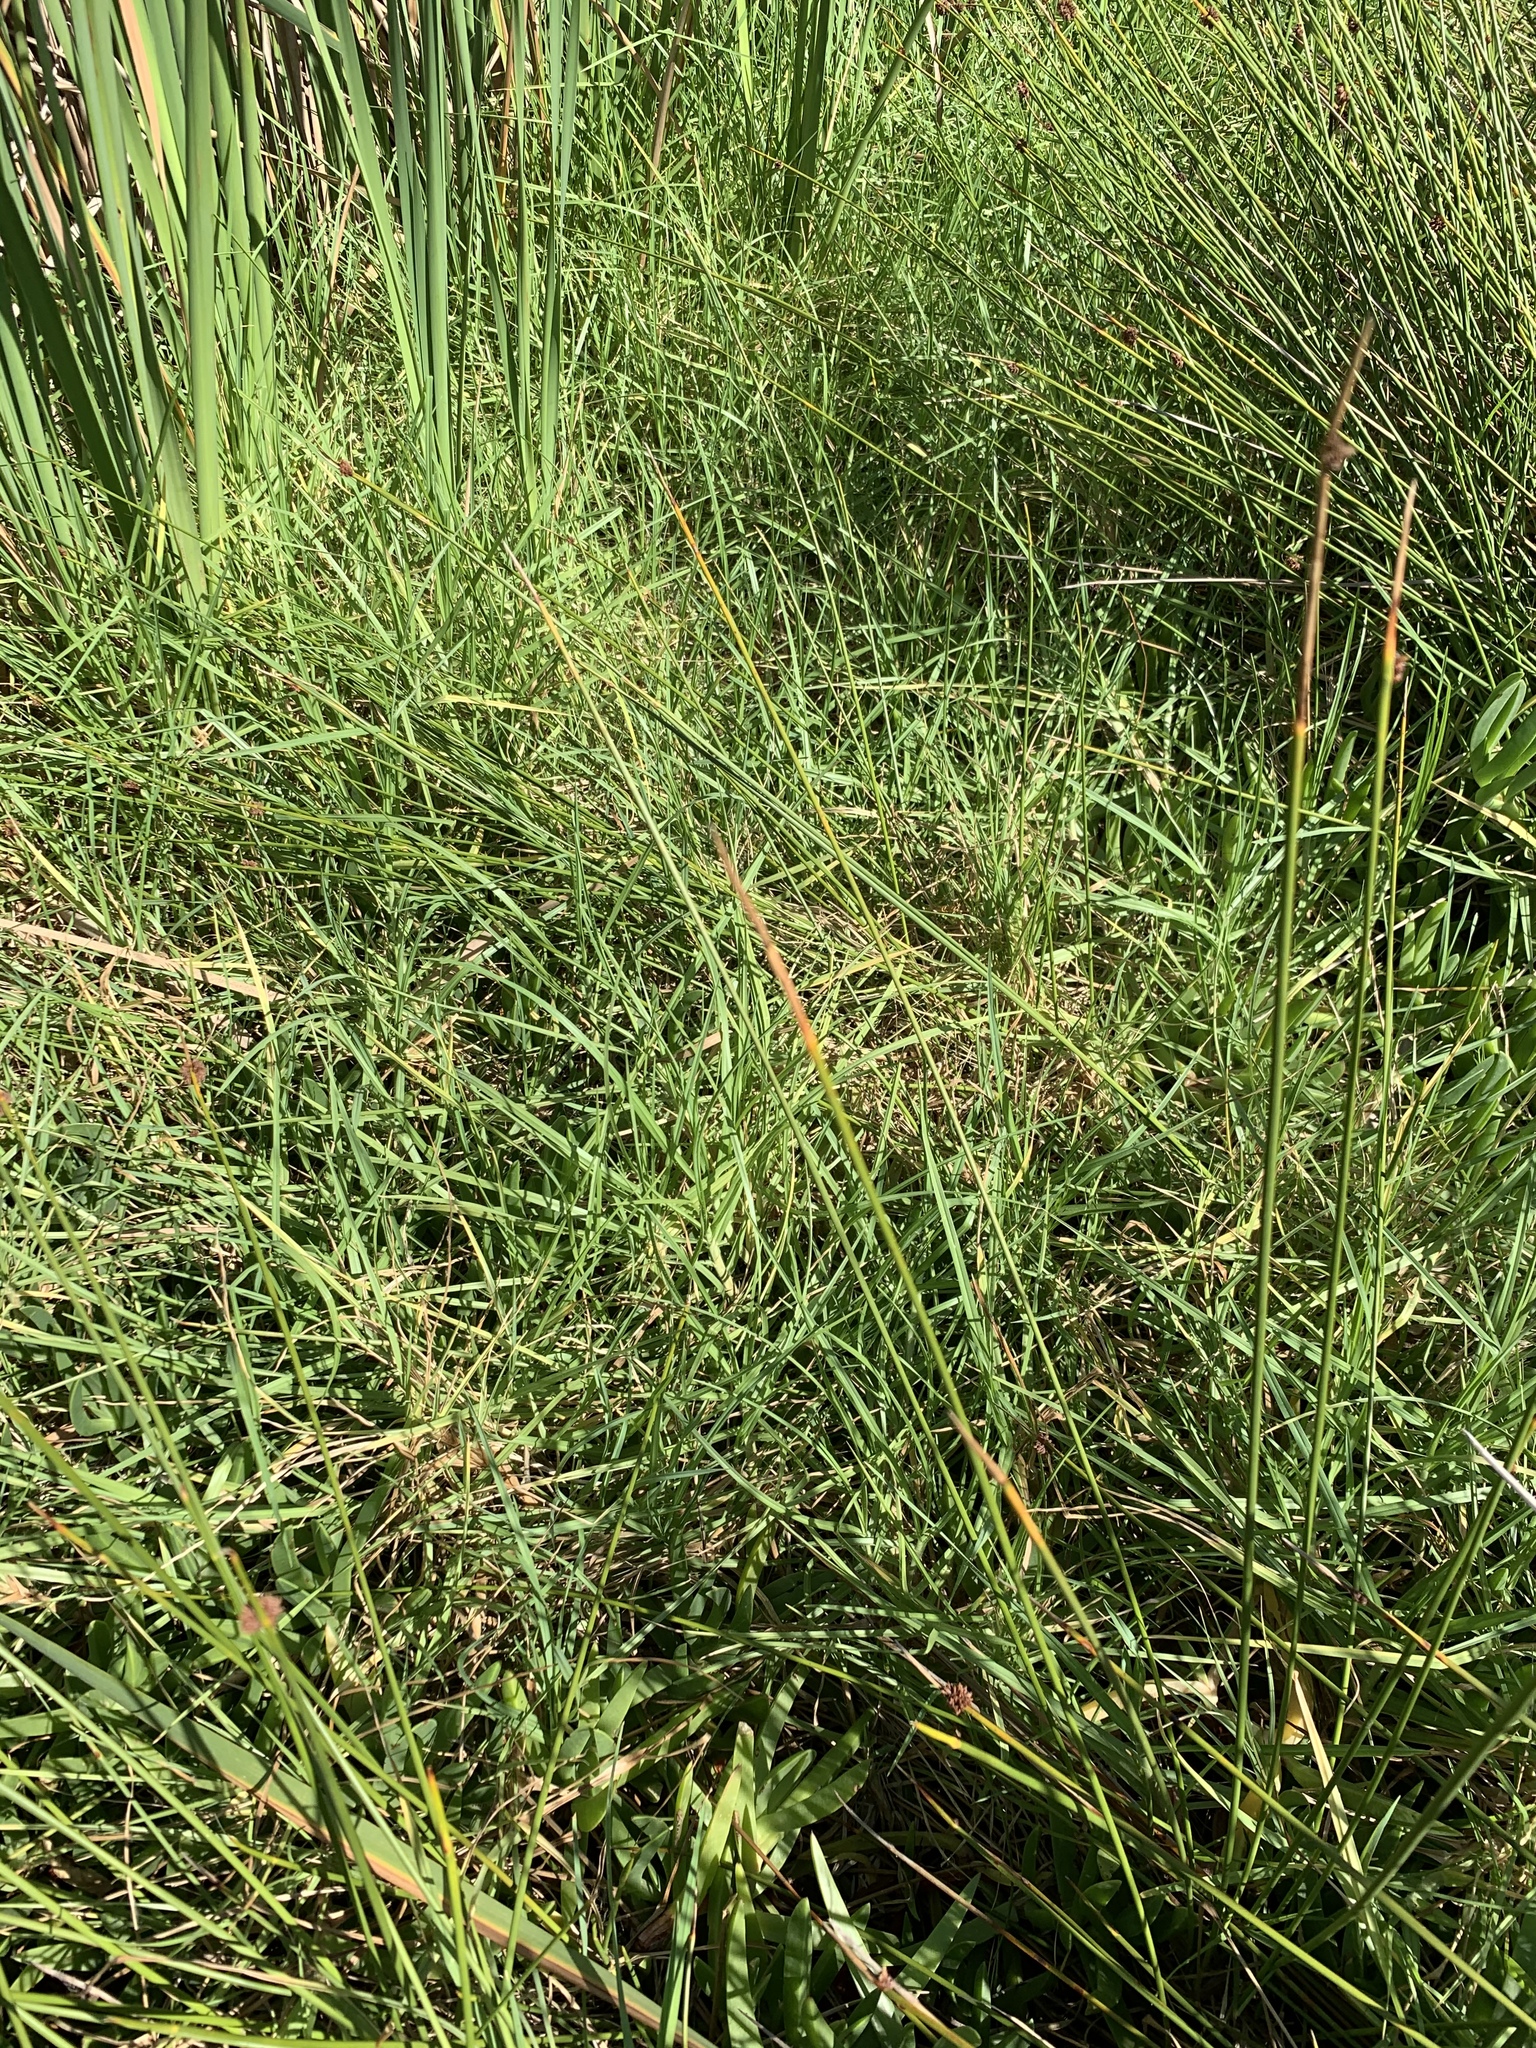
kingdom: Plantae
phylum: Tracheophyta
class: Liliopsida
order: Poales
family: Poaceae
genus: Cenchrus
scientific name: Cenchrus clandestinus
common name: Kikuyugrass
